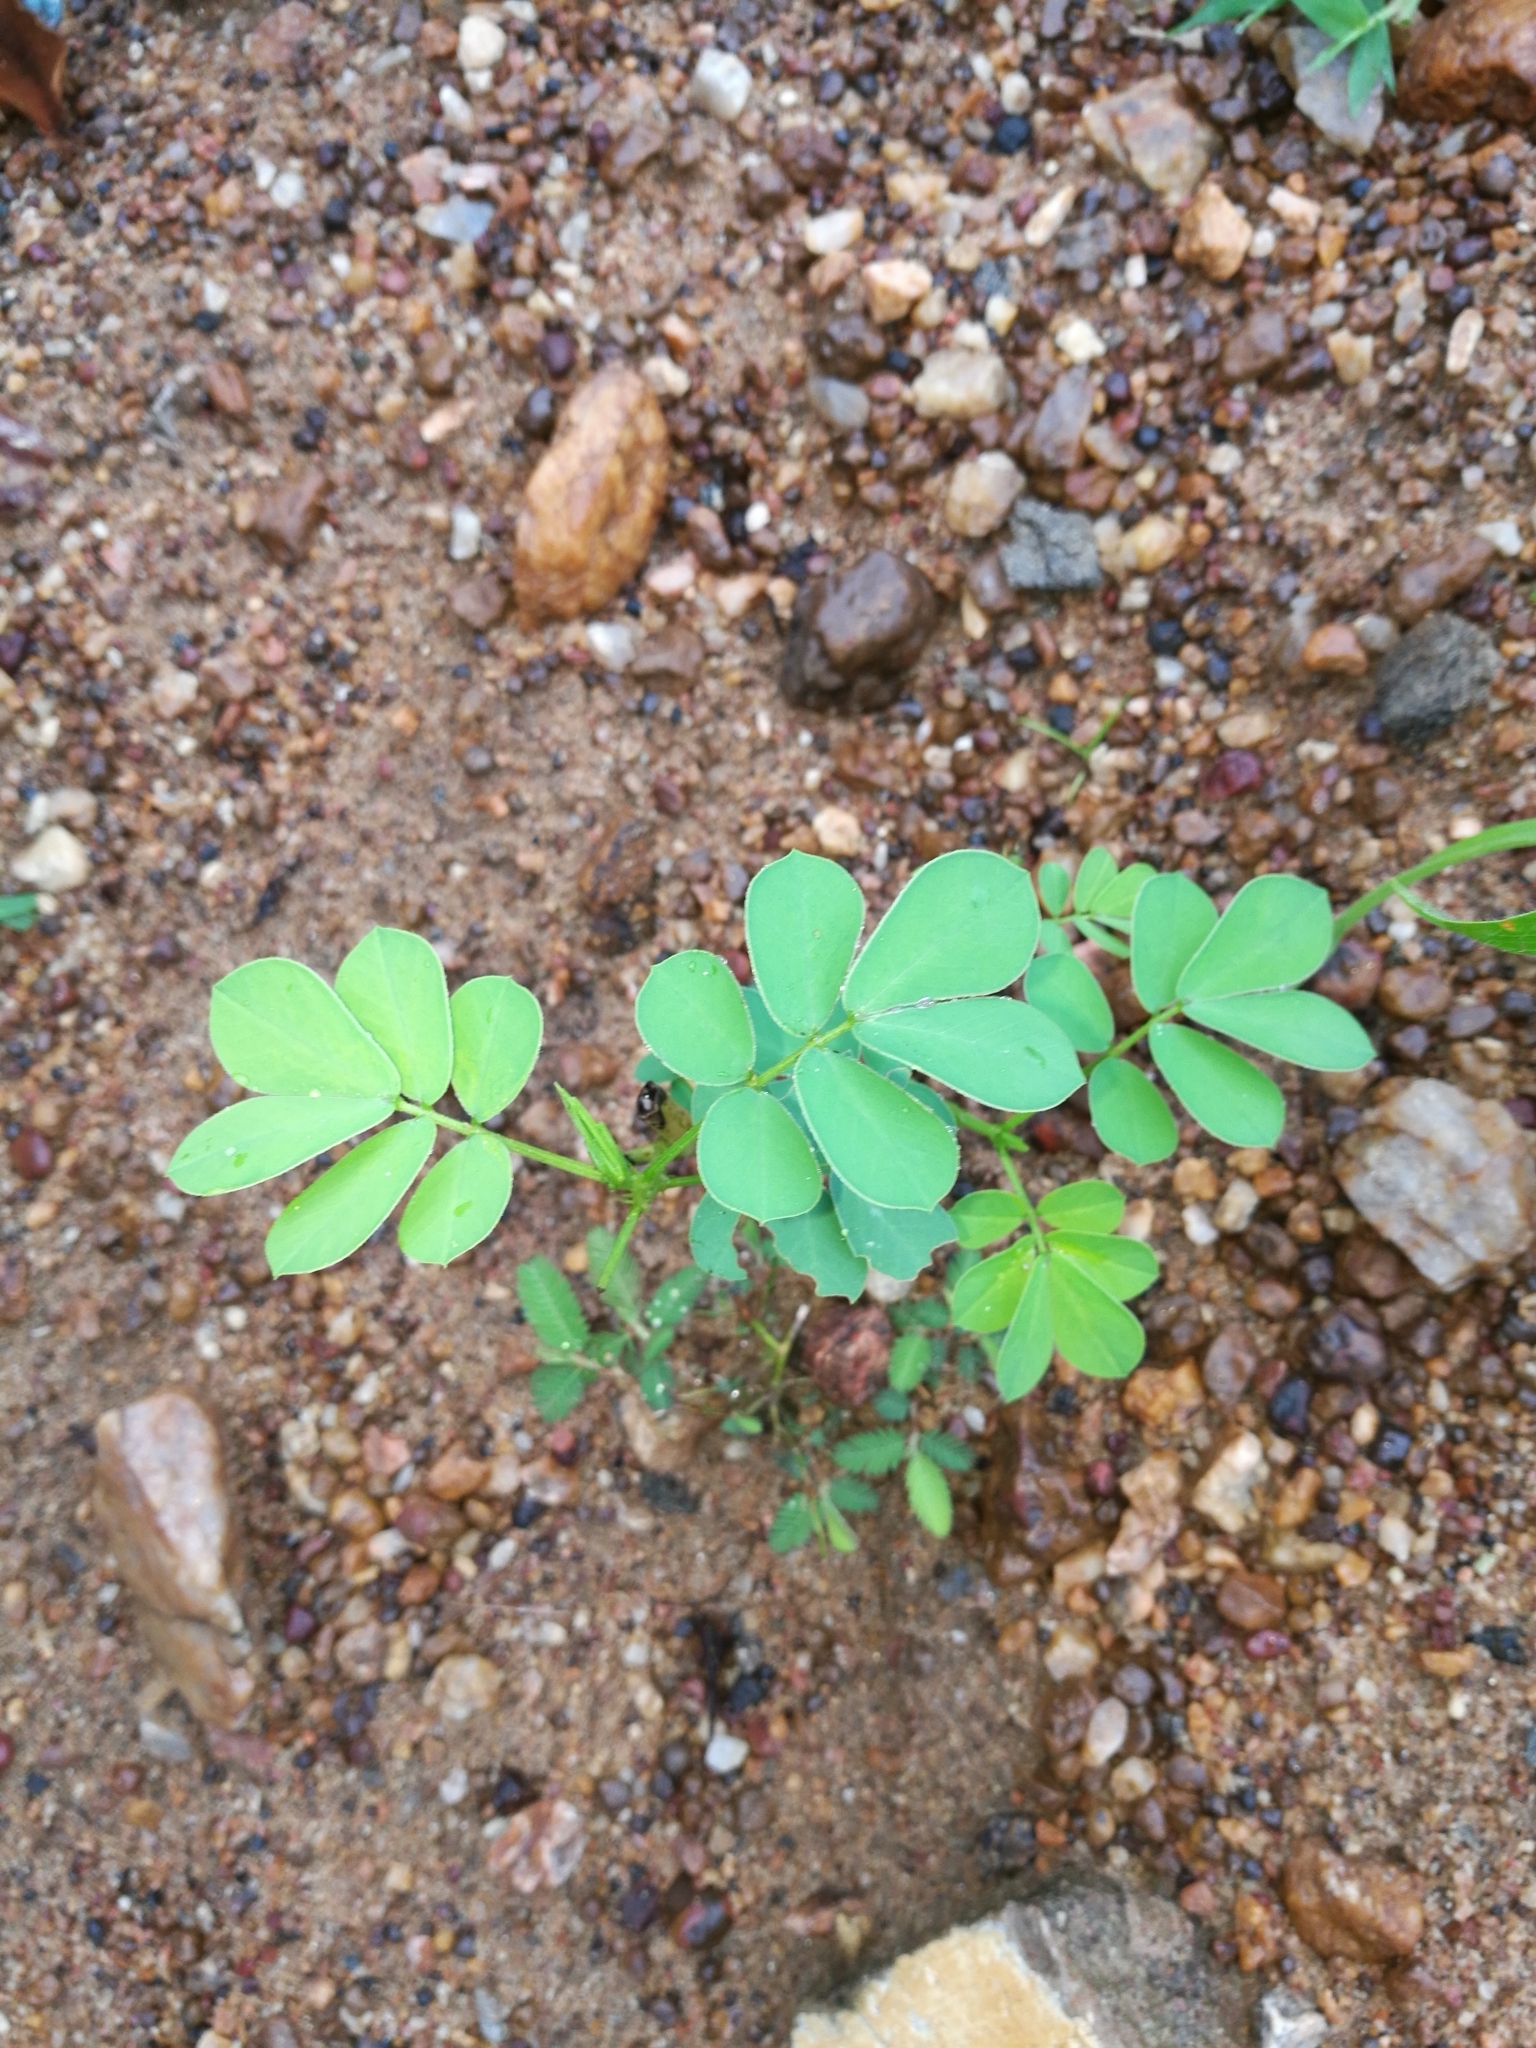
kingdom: Plantae
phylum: Tracheophyta
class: Magnoliopsida
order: Fabales
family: Fabaceae
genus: Senna
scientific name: Senna obtusifolia
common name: Java-bean
